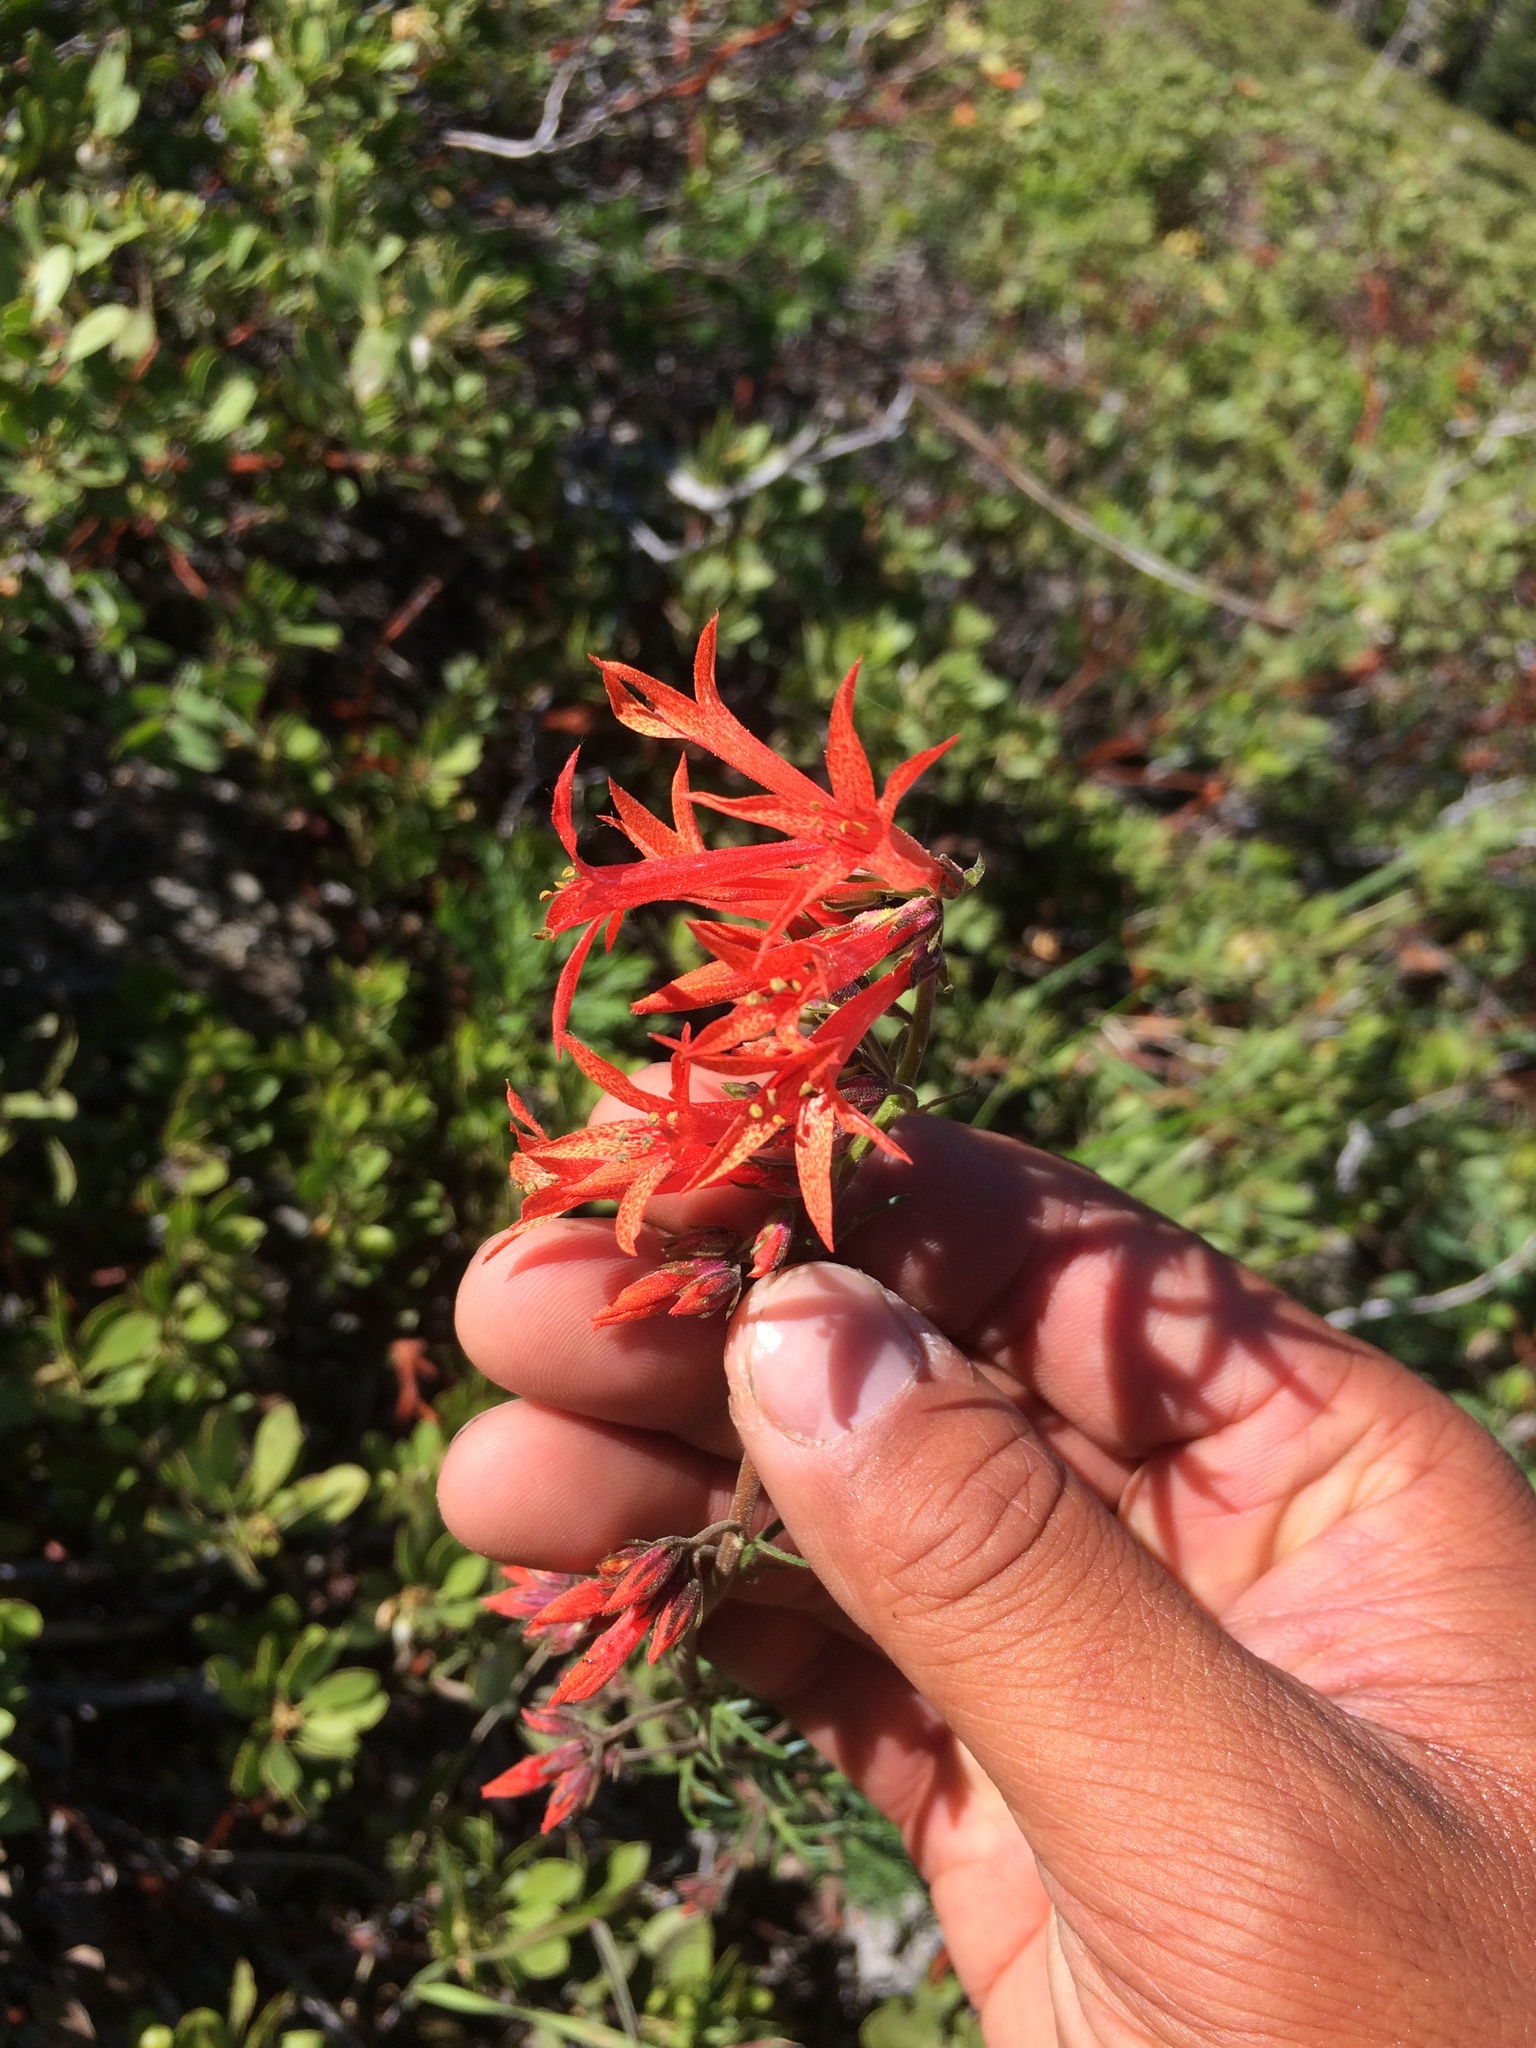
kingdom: Plantae
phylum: Tracheophyta
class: Magnoliopsida
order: Ericales
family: Polemoniaceae
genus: Ipomopsis
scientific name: Ipomopsis aggregata
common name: Scarlet gilia
